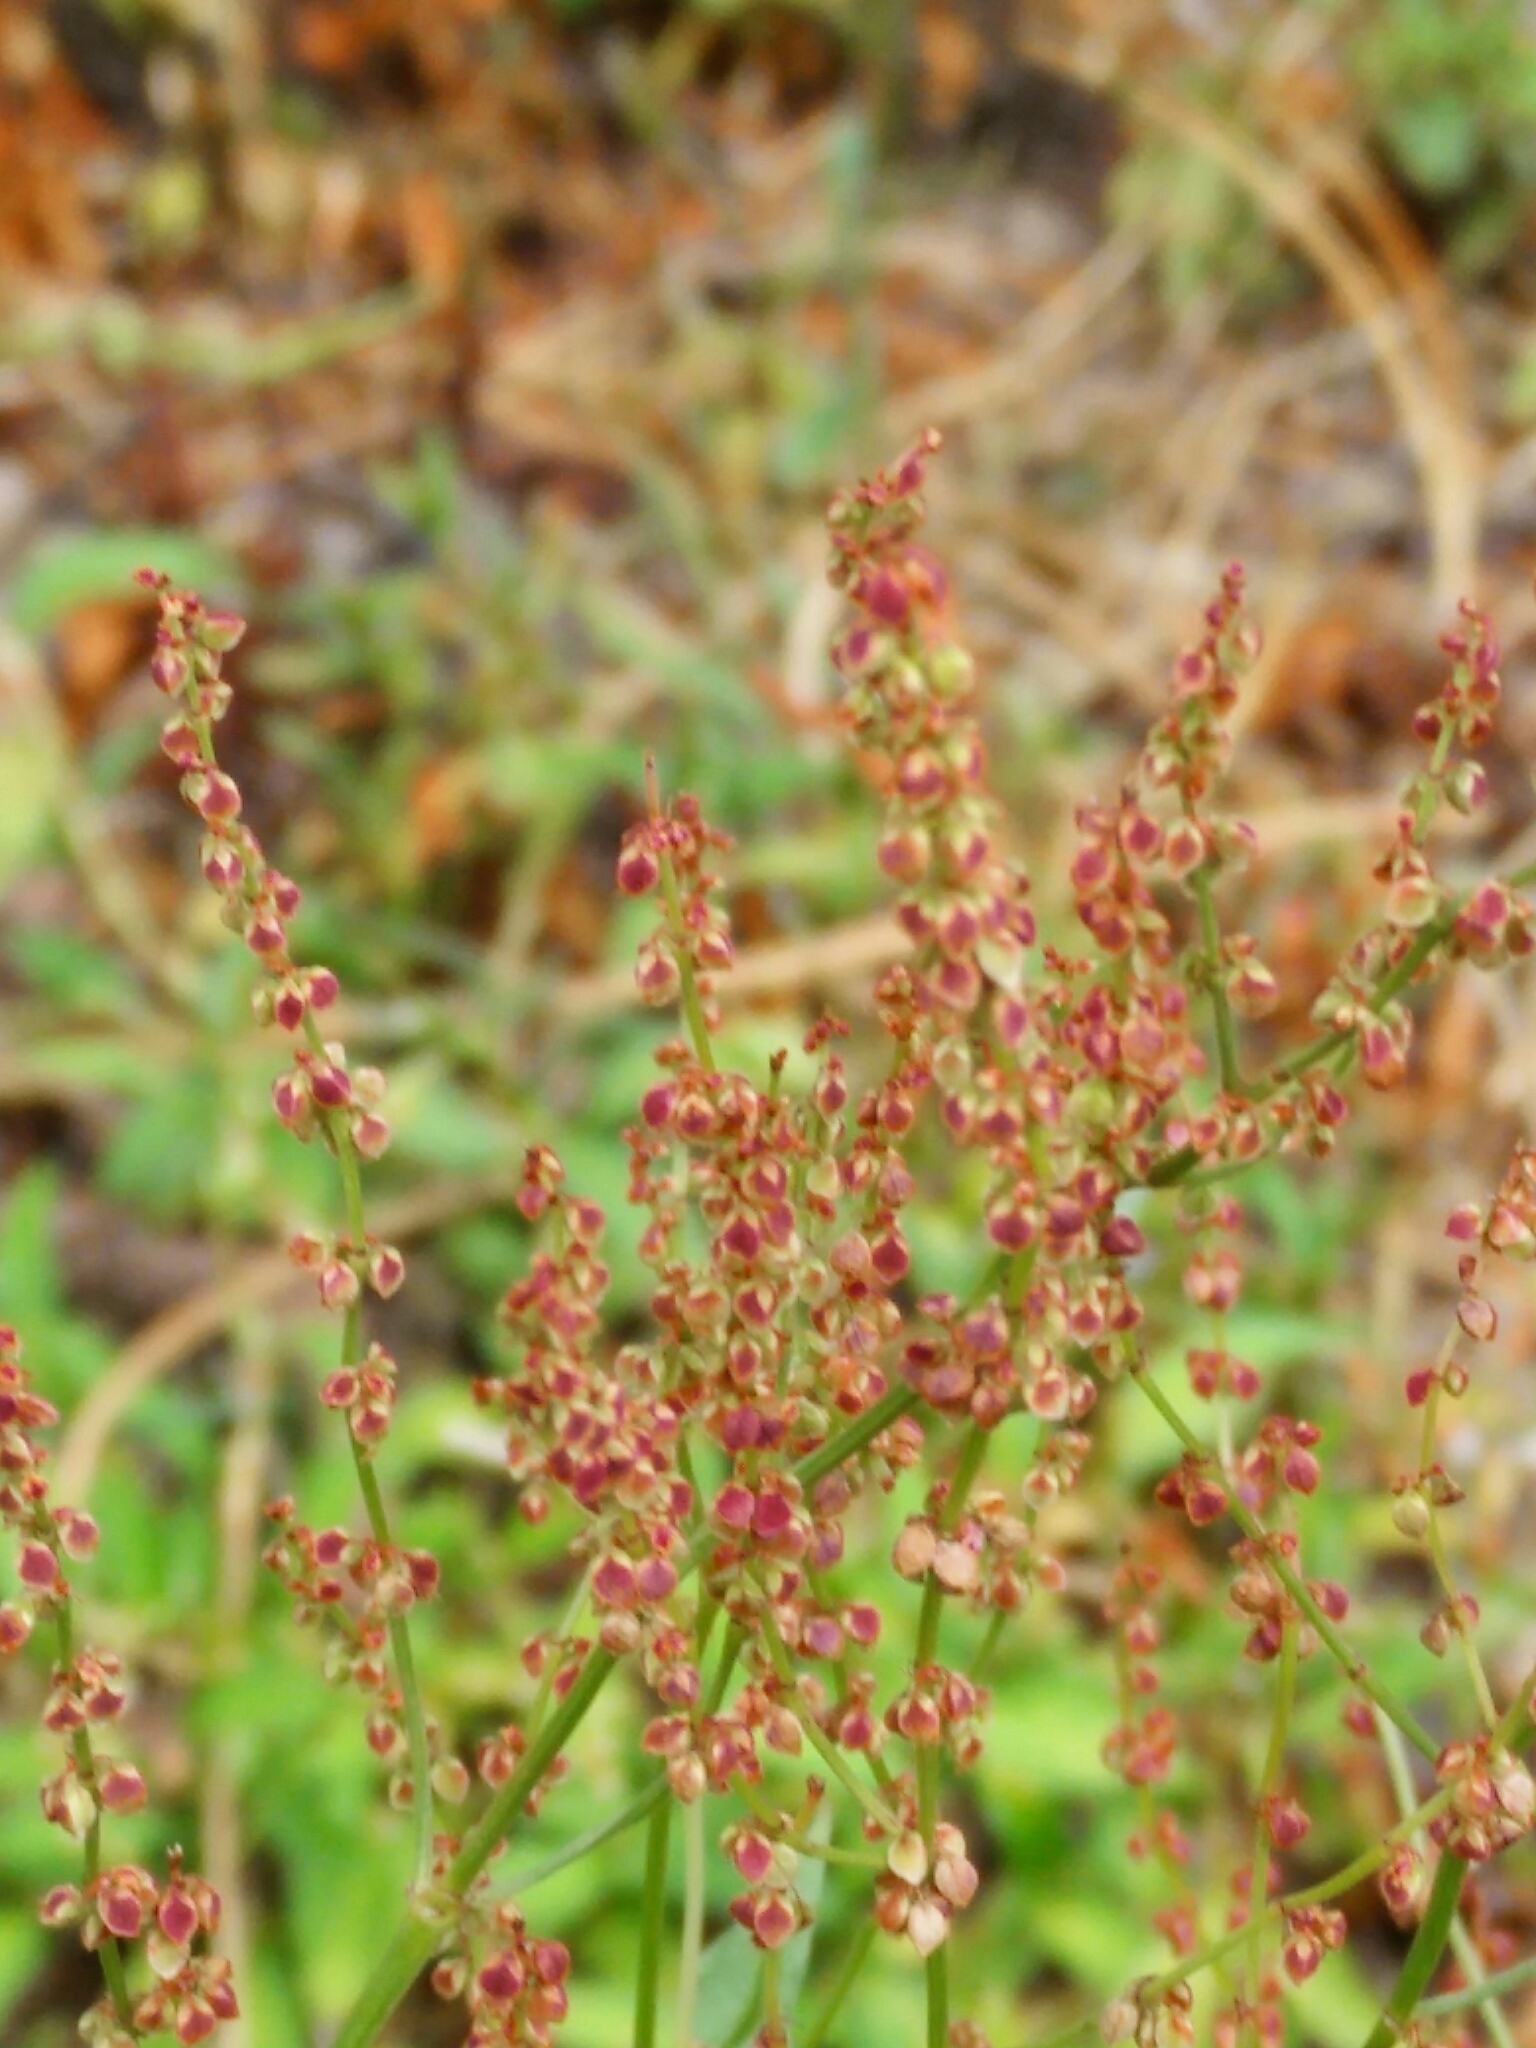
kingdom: Plantae
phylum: Tracheophyta
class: Magnoliopsida
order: Caryophyllales
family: Polygonaceae
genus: Rumex
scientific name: Rumex acetosella
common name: Common sheep sorrel
